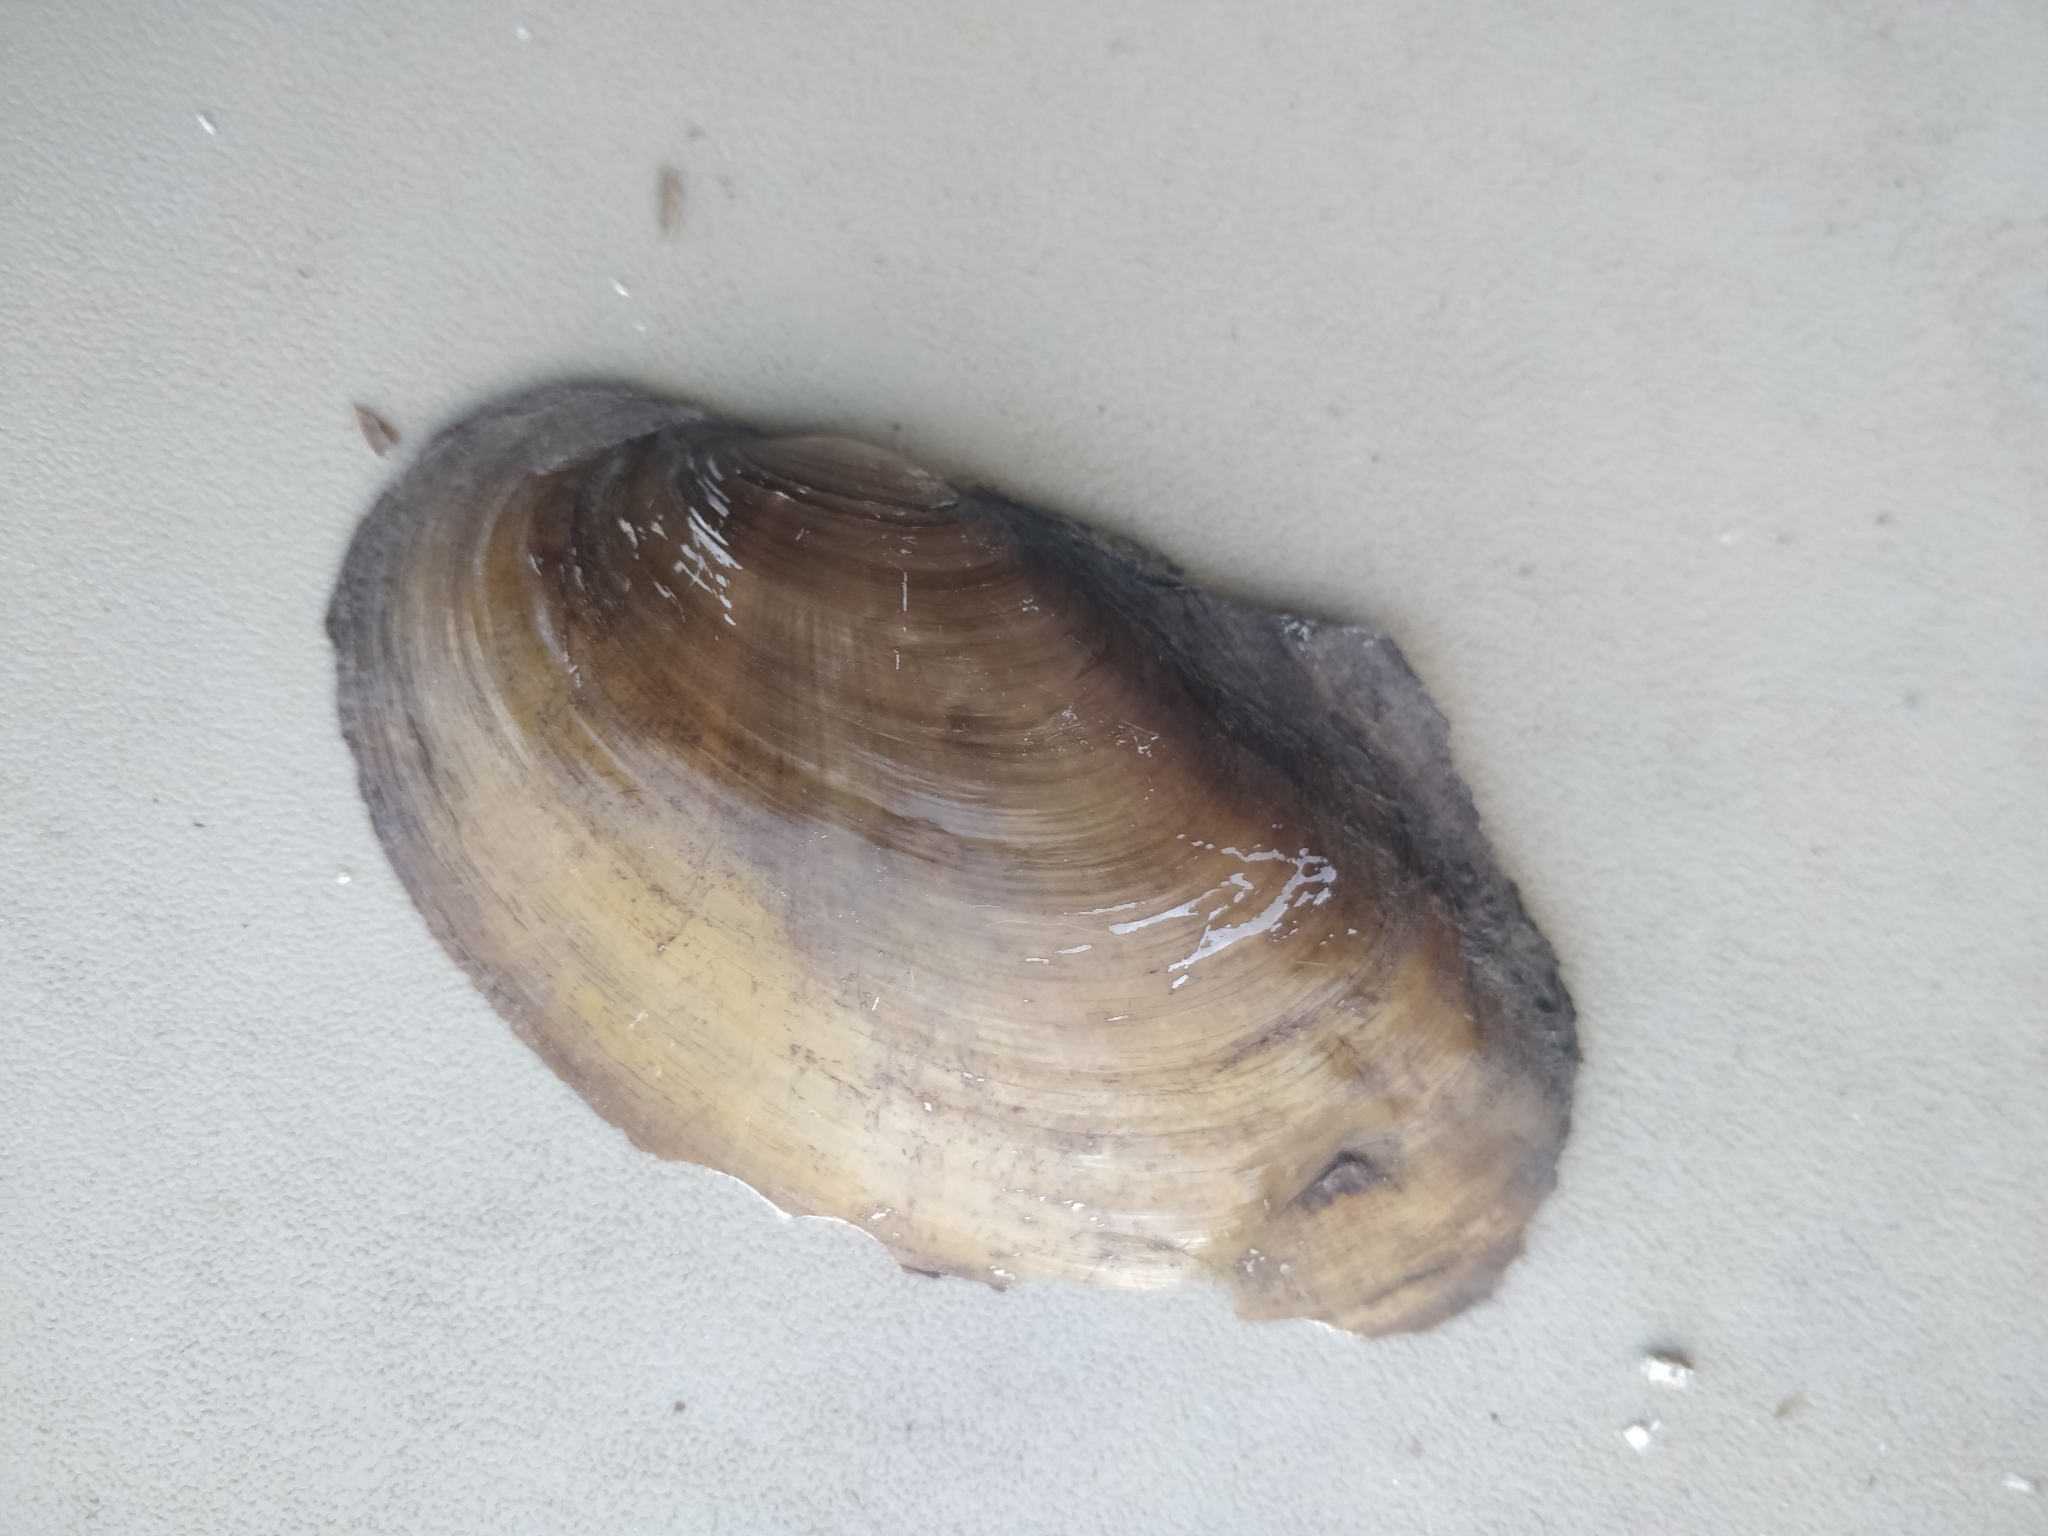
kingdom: Animalia
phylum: Mollusca
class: Bivalvia
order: Unionida
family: Unionidae
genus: Potamilus
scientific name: Potamilus fragilis
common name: Fragile papershell
